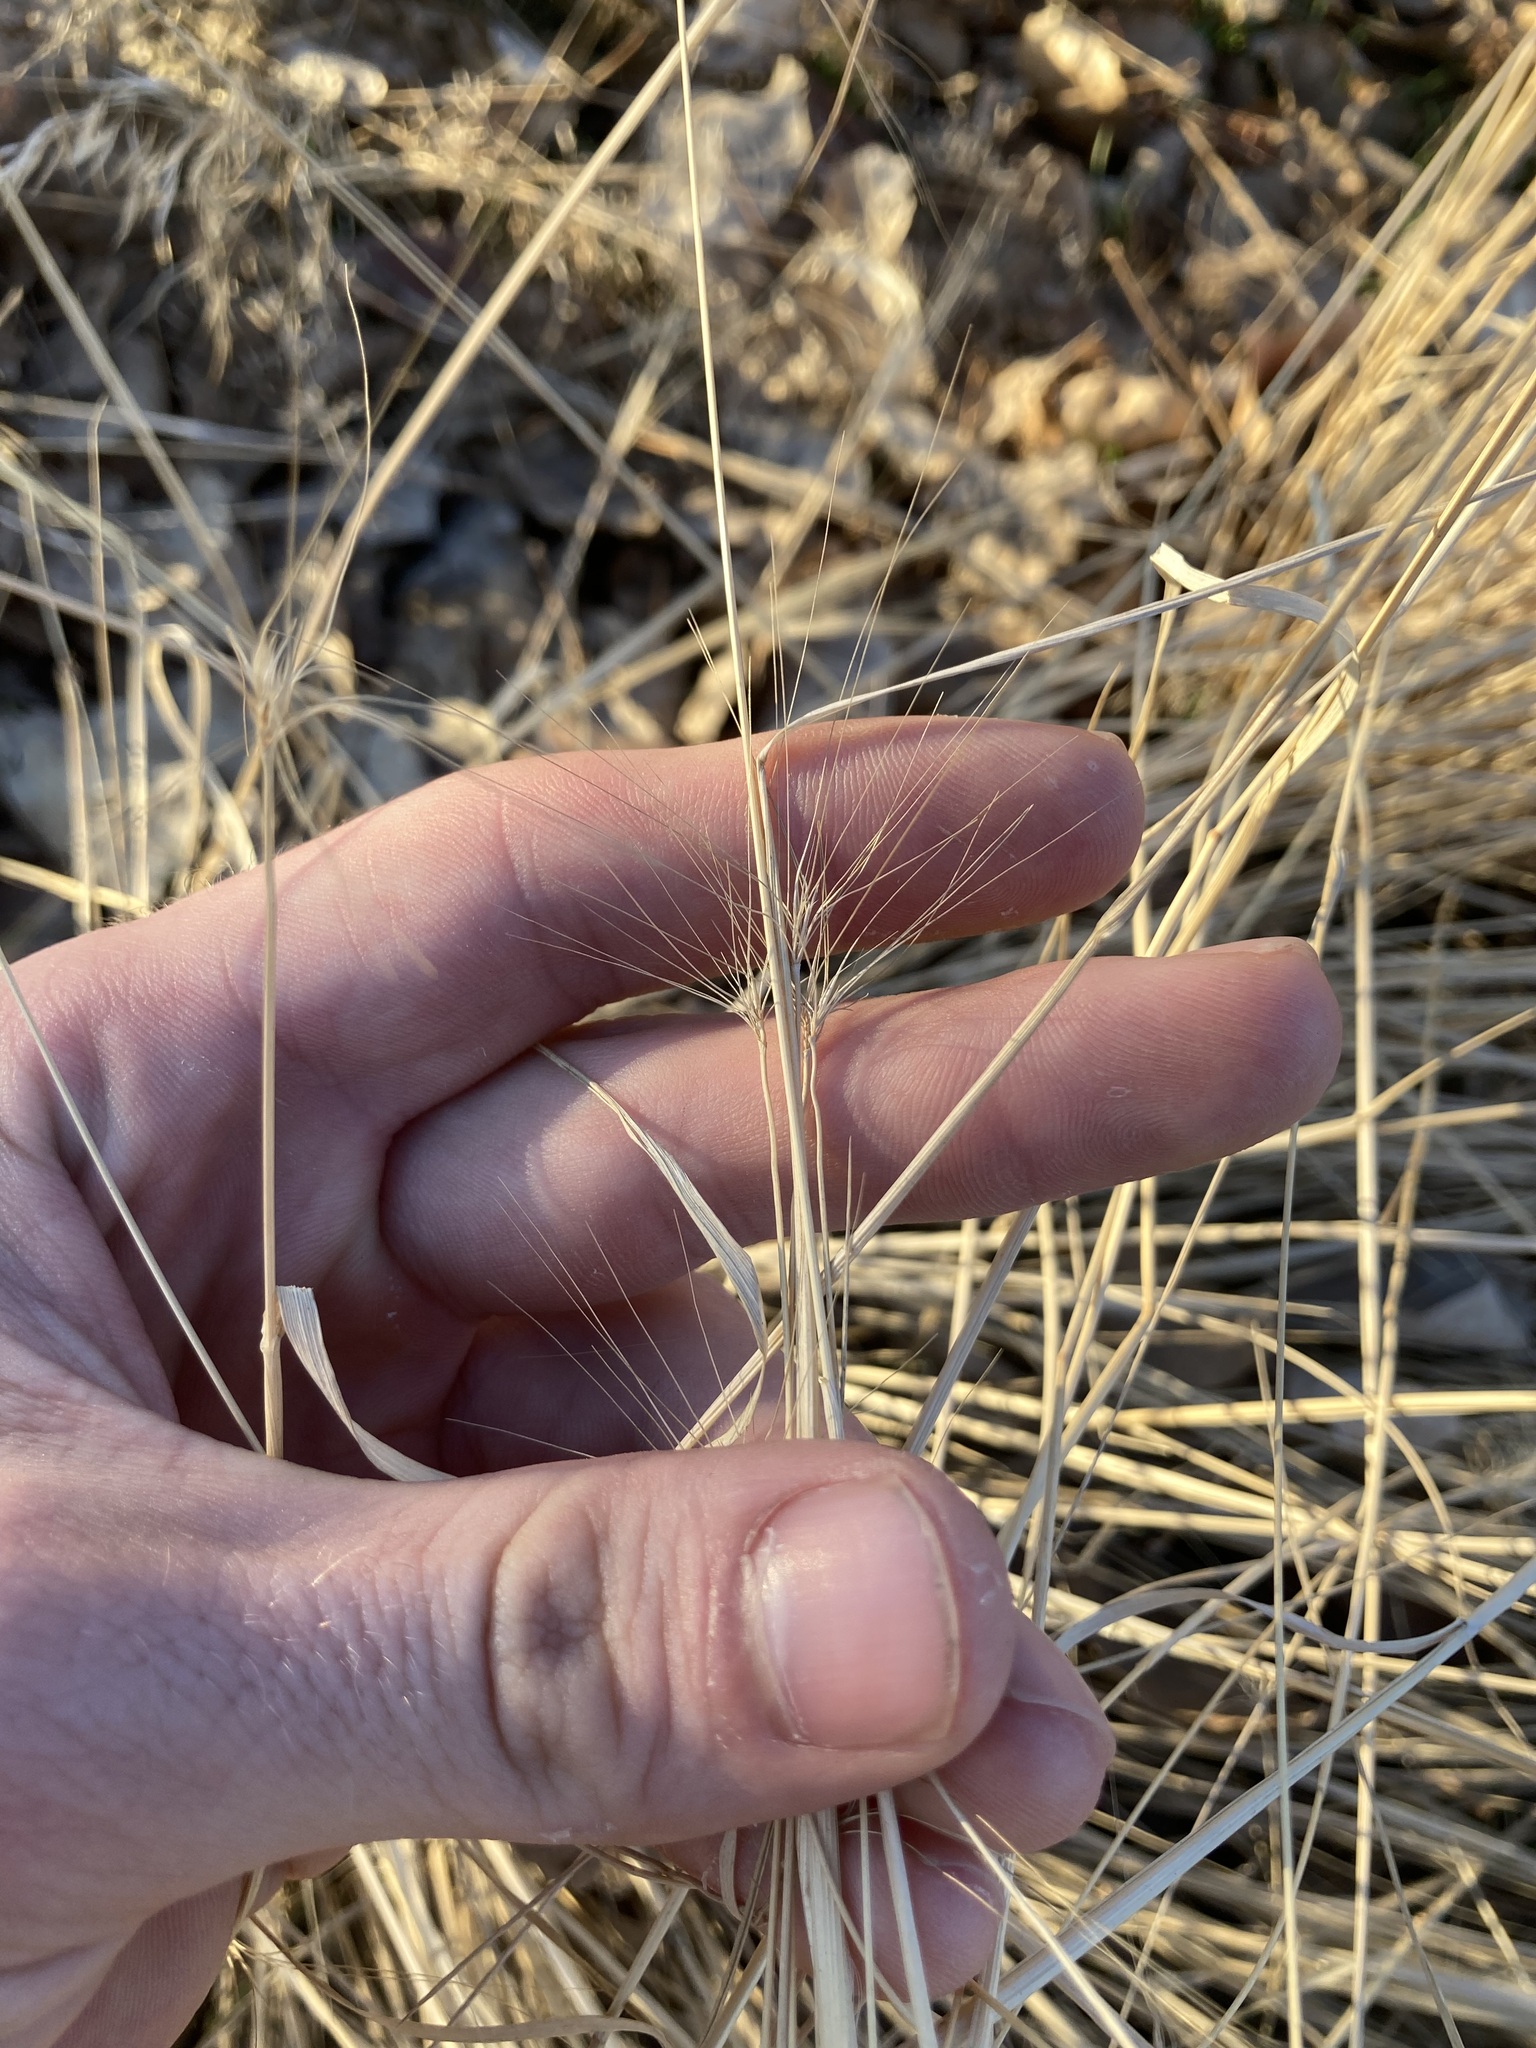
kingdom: Plantae
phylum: Tracheophyta
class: Liliopsida
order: Poales
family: Poaceae
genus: Taeniatherum
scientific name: Taeniatherum caput-medusae
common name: Medusahead
